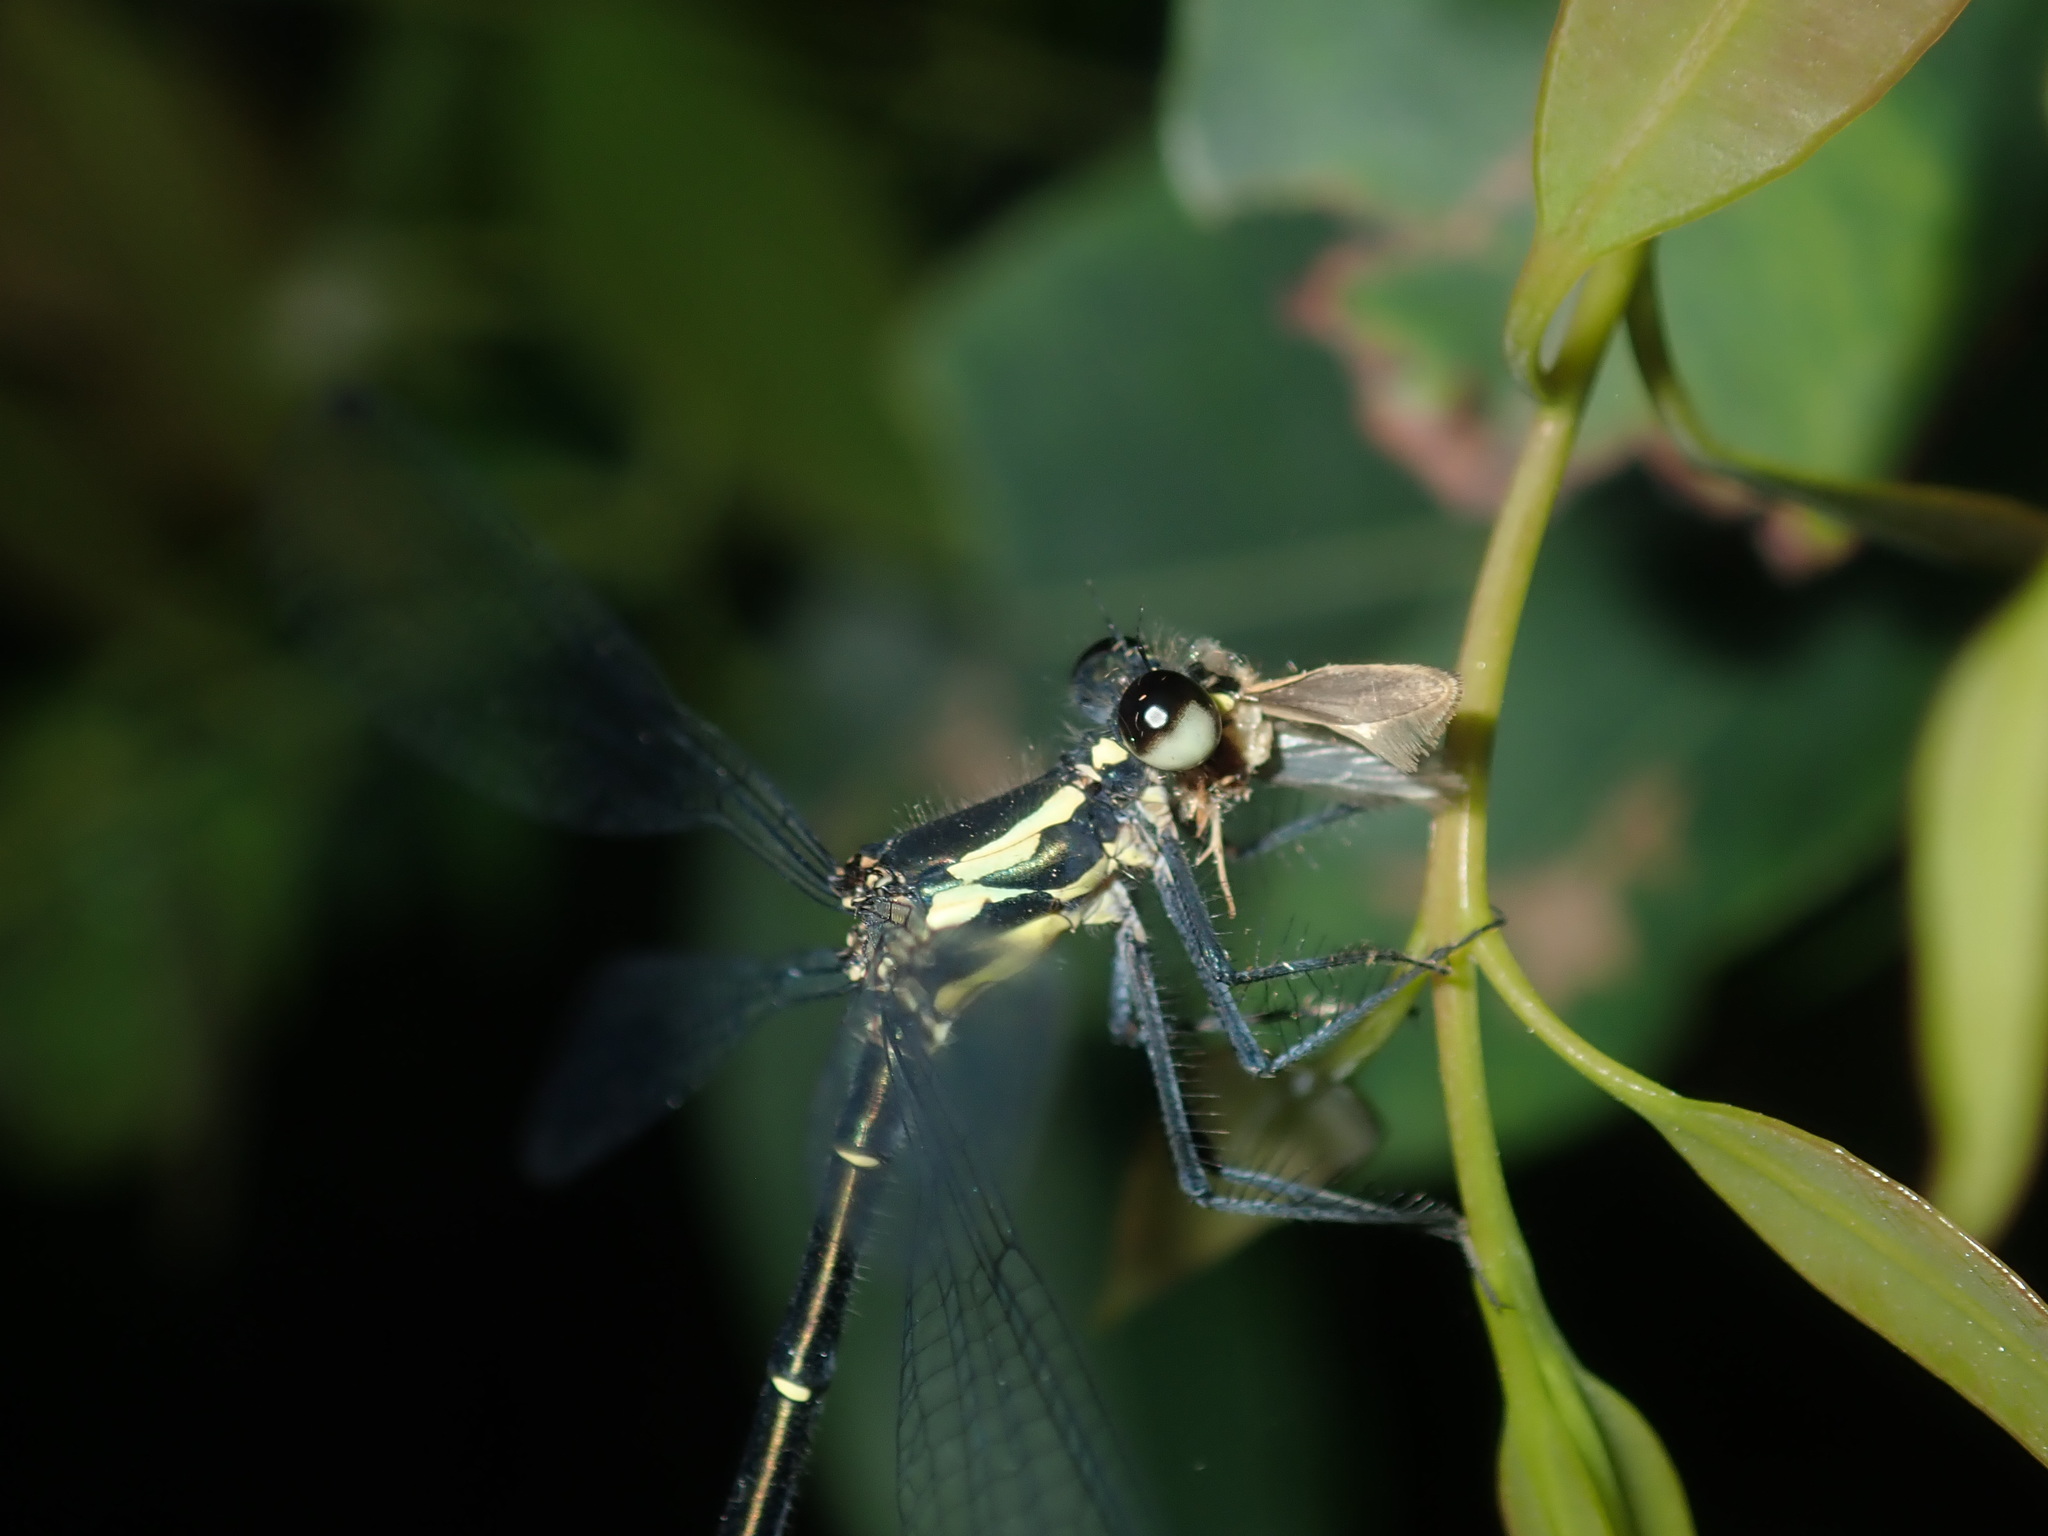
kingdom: Animalia
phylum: Arthropoda
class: Insecta
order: Odonata
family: Argiolestidae
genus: Austroargiolestes
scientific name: Austroargiolestes icteromelas
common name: Common flatwing
